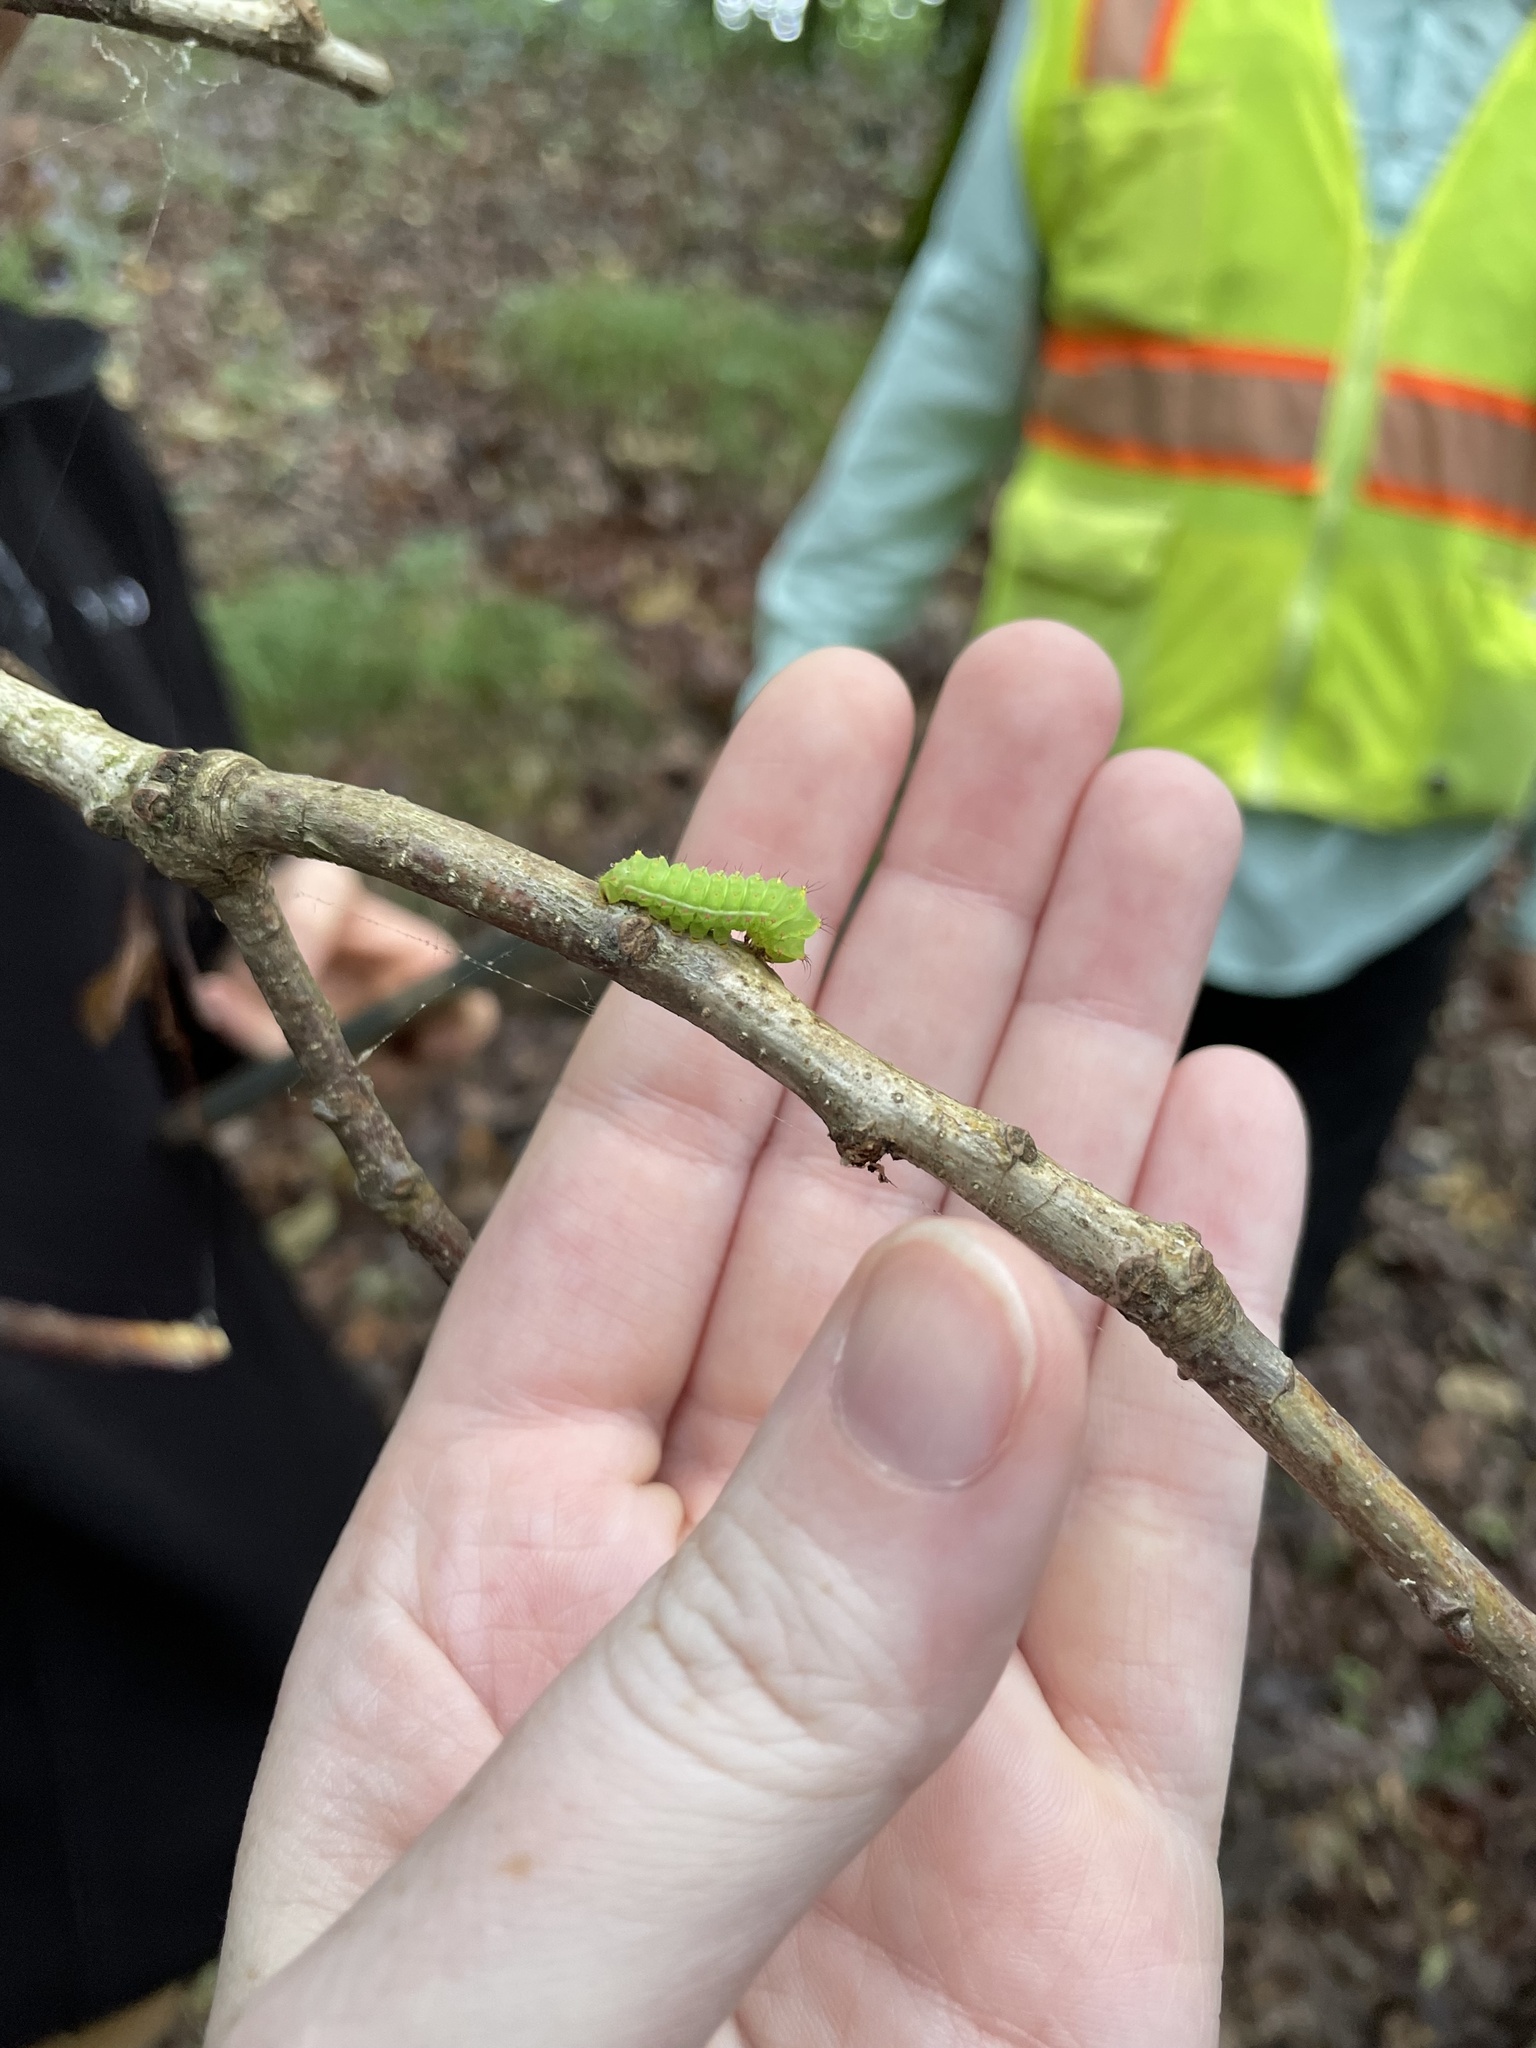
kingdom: Animalia
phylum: Arthropoda
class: Insecta
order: Lepidoptera
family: Saturniidae
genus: Actias
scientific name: Actias luna
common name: Luna moth
